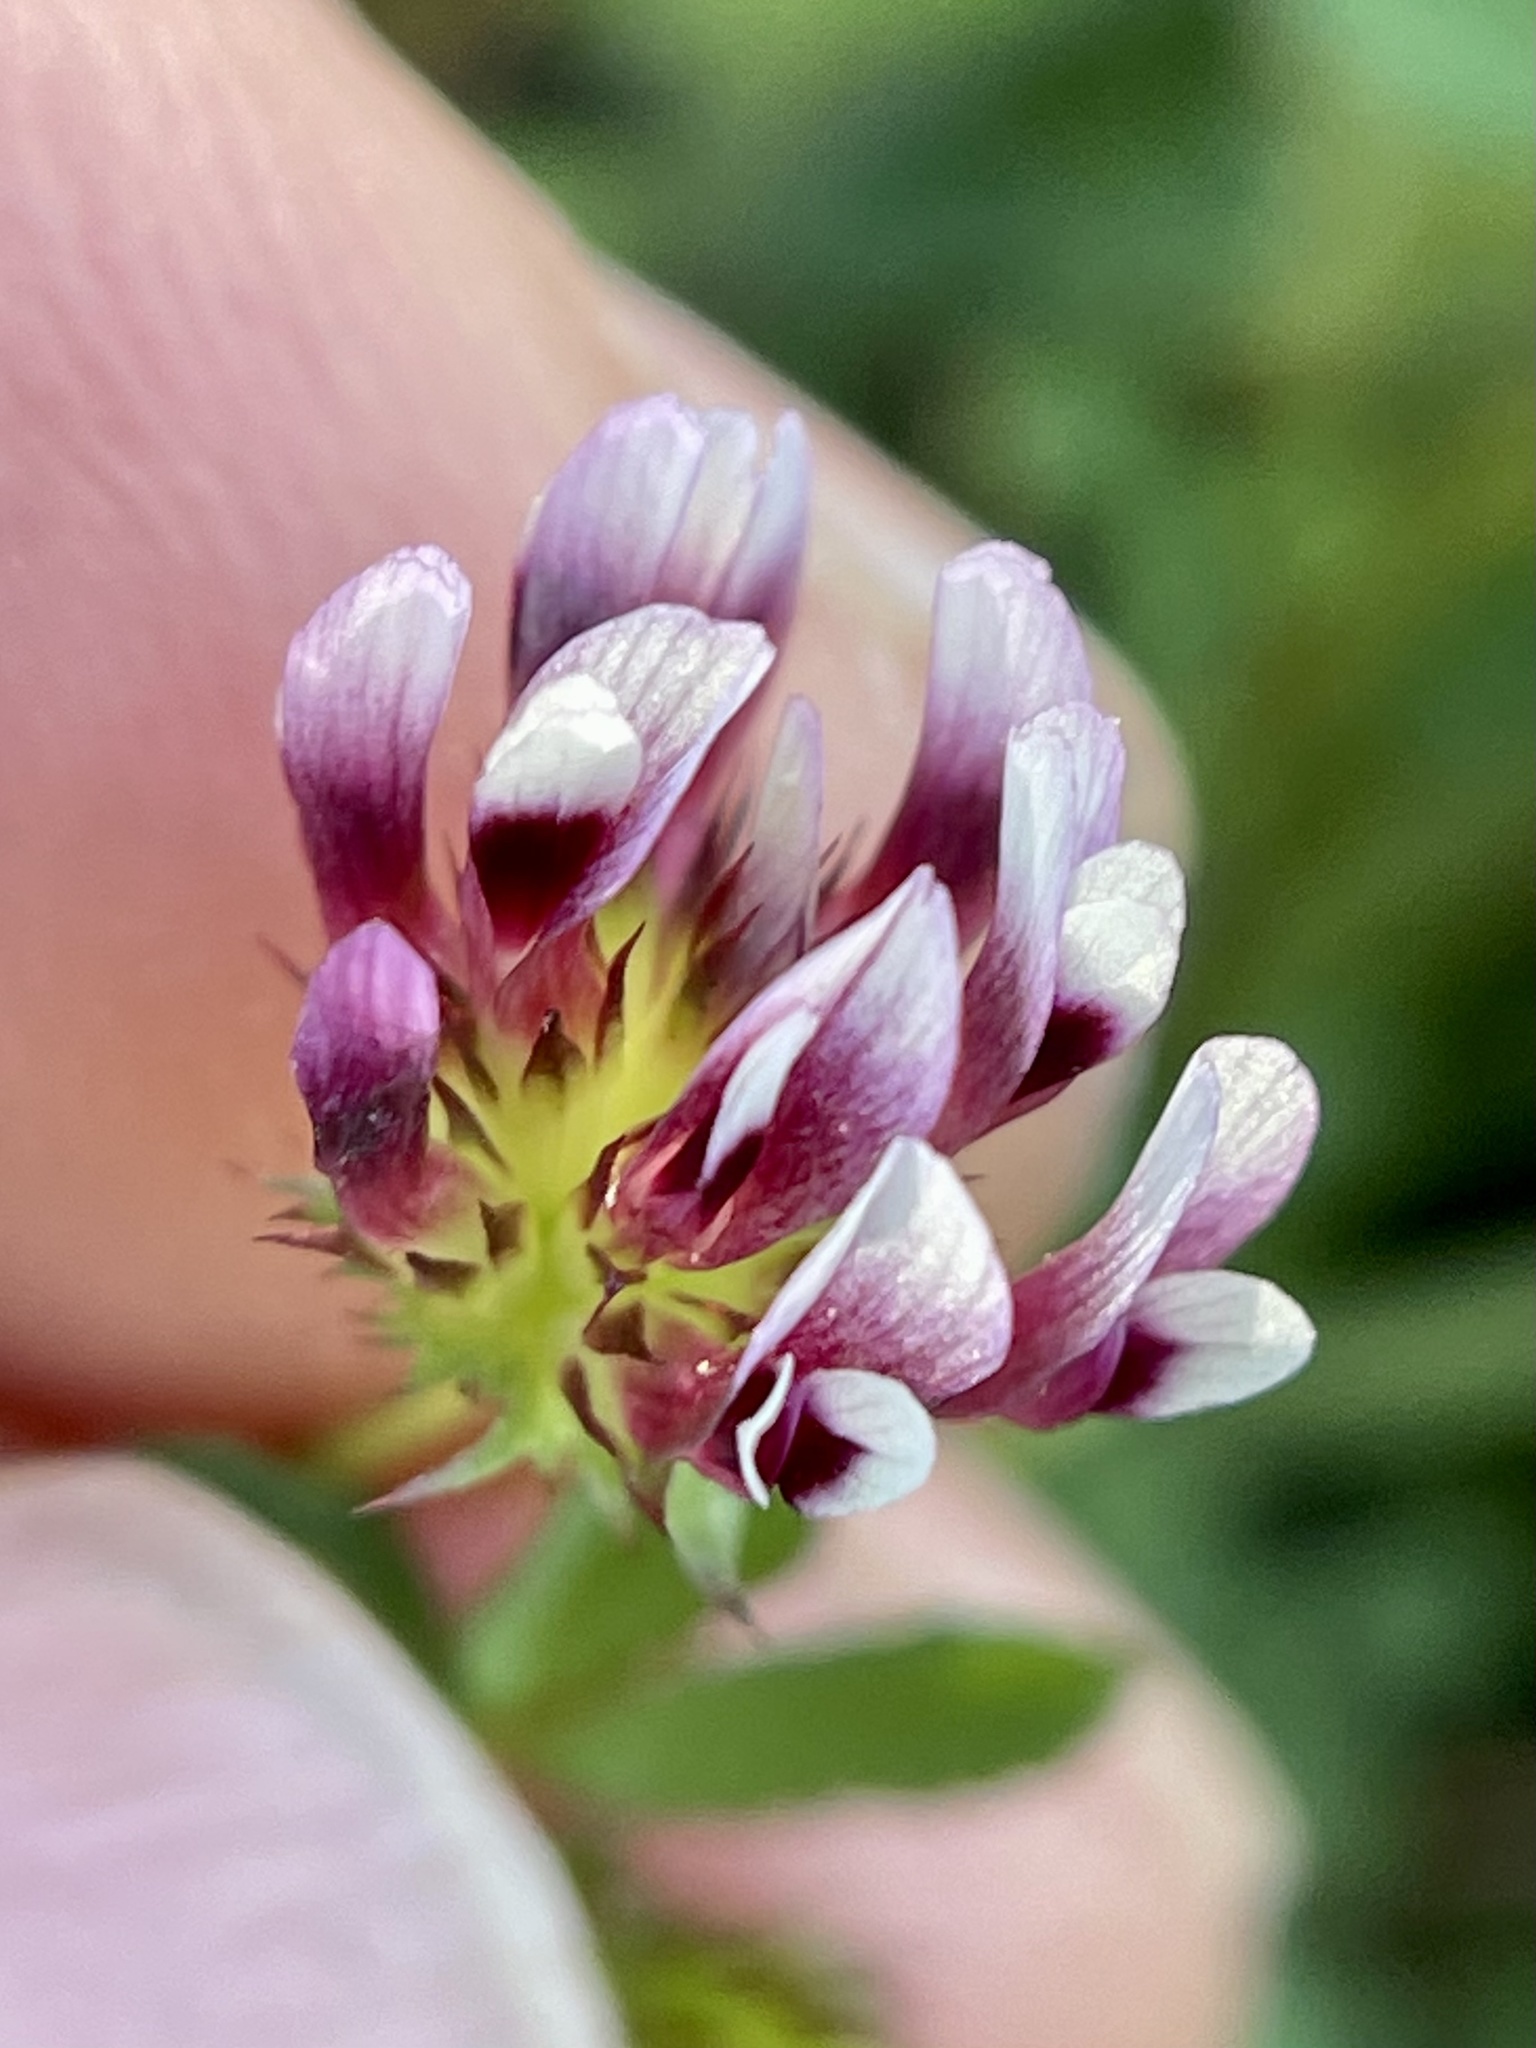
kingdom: Plantae
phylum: Tracheophyta
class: Magnoliopsida
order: Fabales
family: Fabaceae
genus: Trifolium
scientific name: Trifolium variegatum
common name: Whitetip clover
